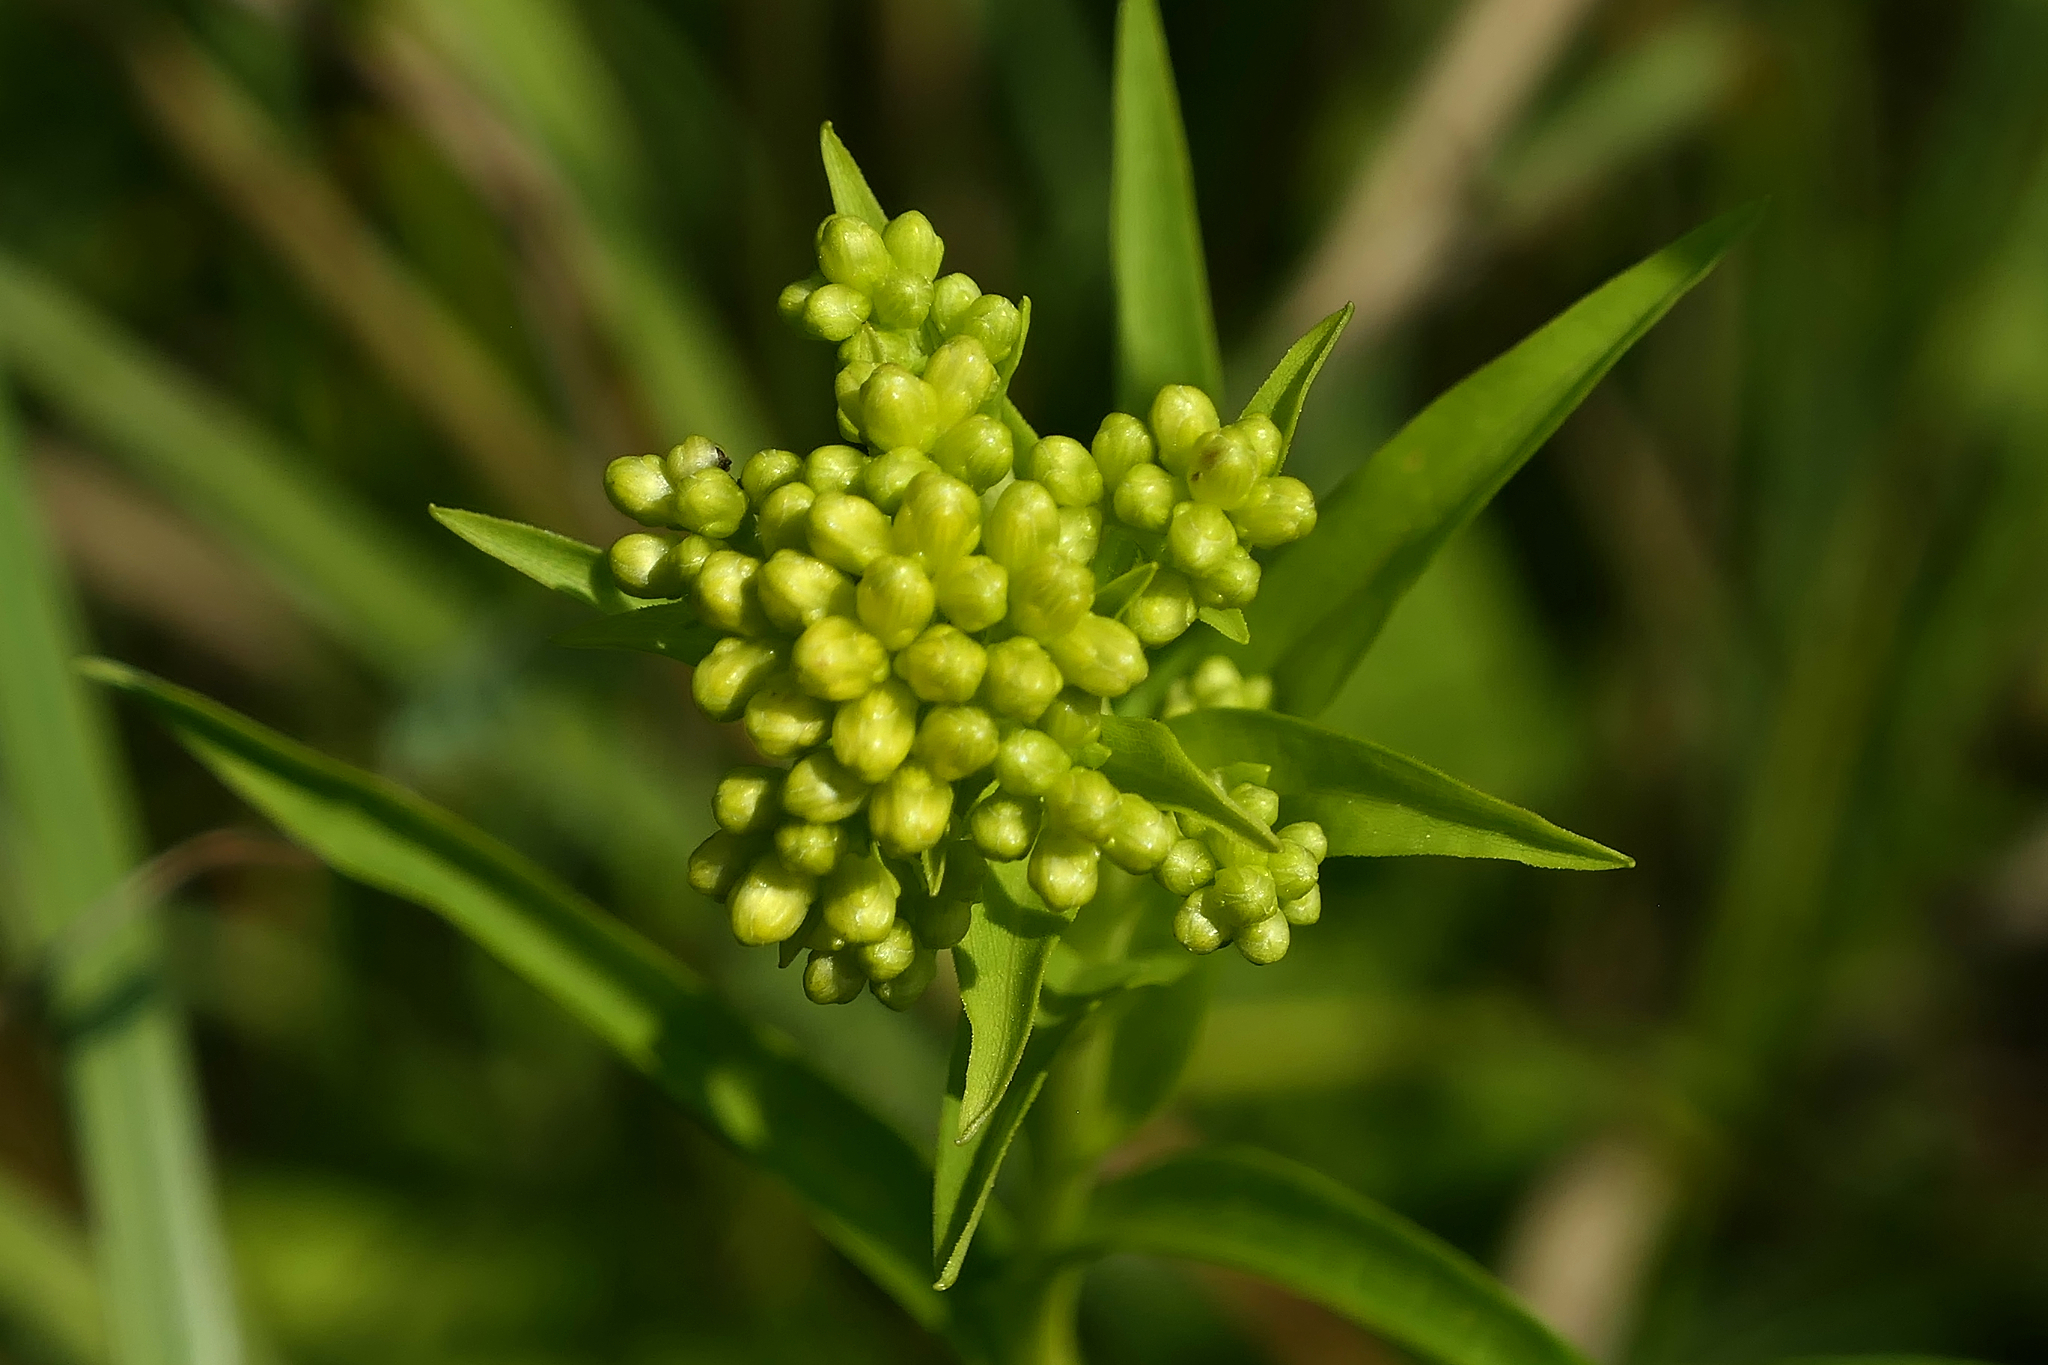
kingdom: Plantae
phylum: Tracheophyta
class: Magnoliopsida
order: Asterales
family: Asteraceae
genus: Solidago
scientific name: Solidago riddellii
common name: Riddell's goldenrod
